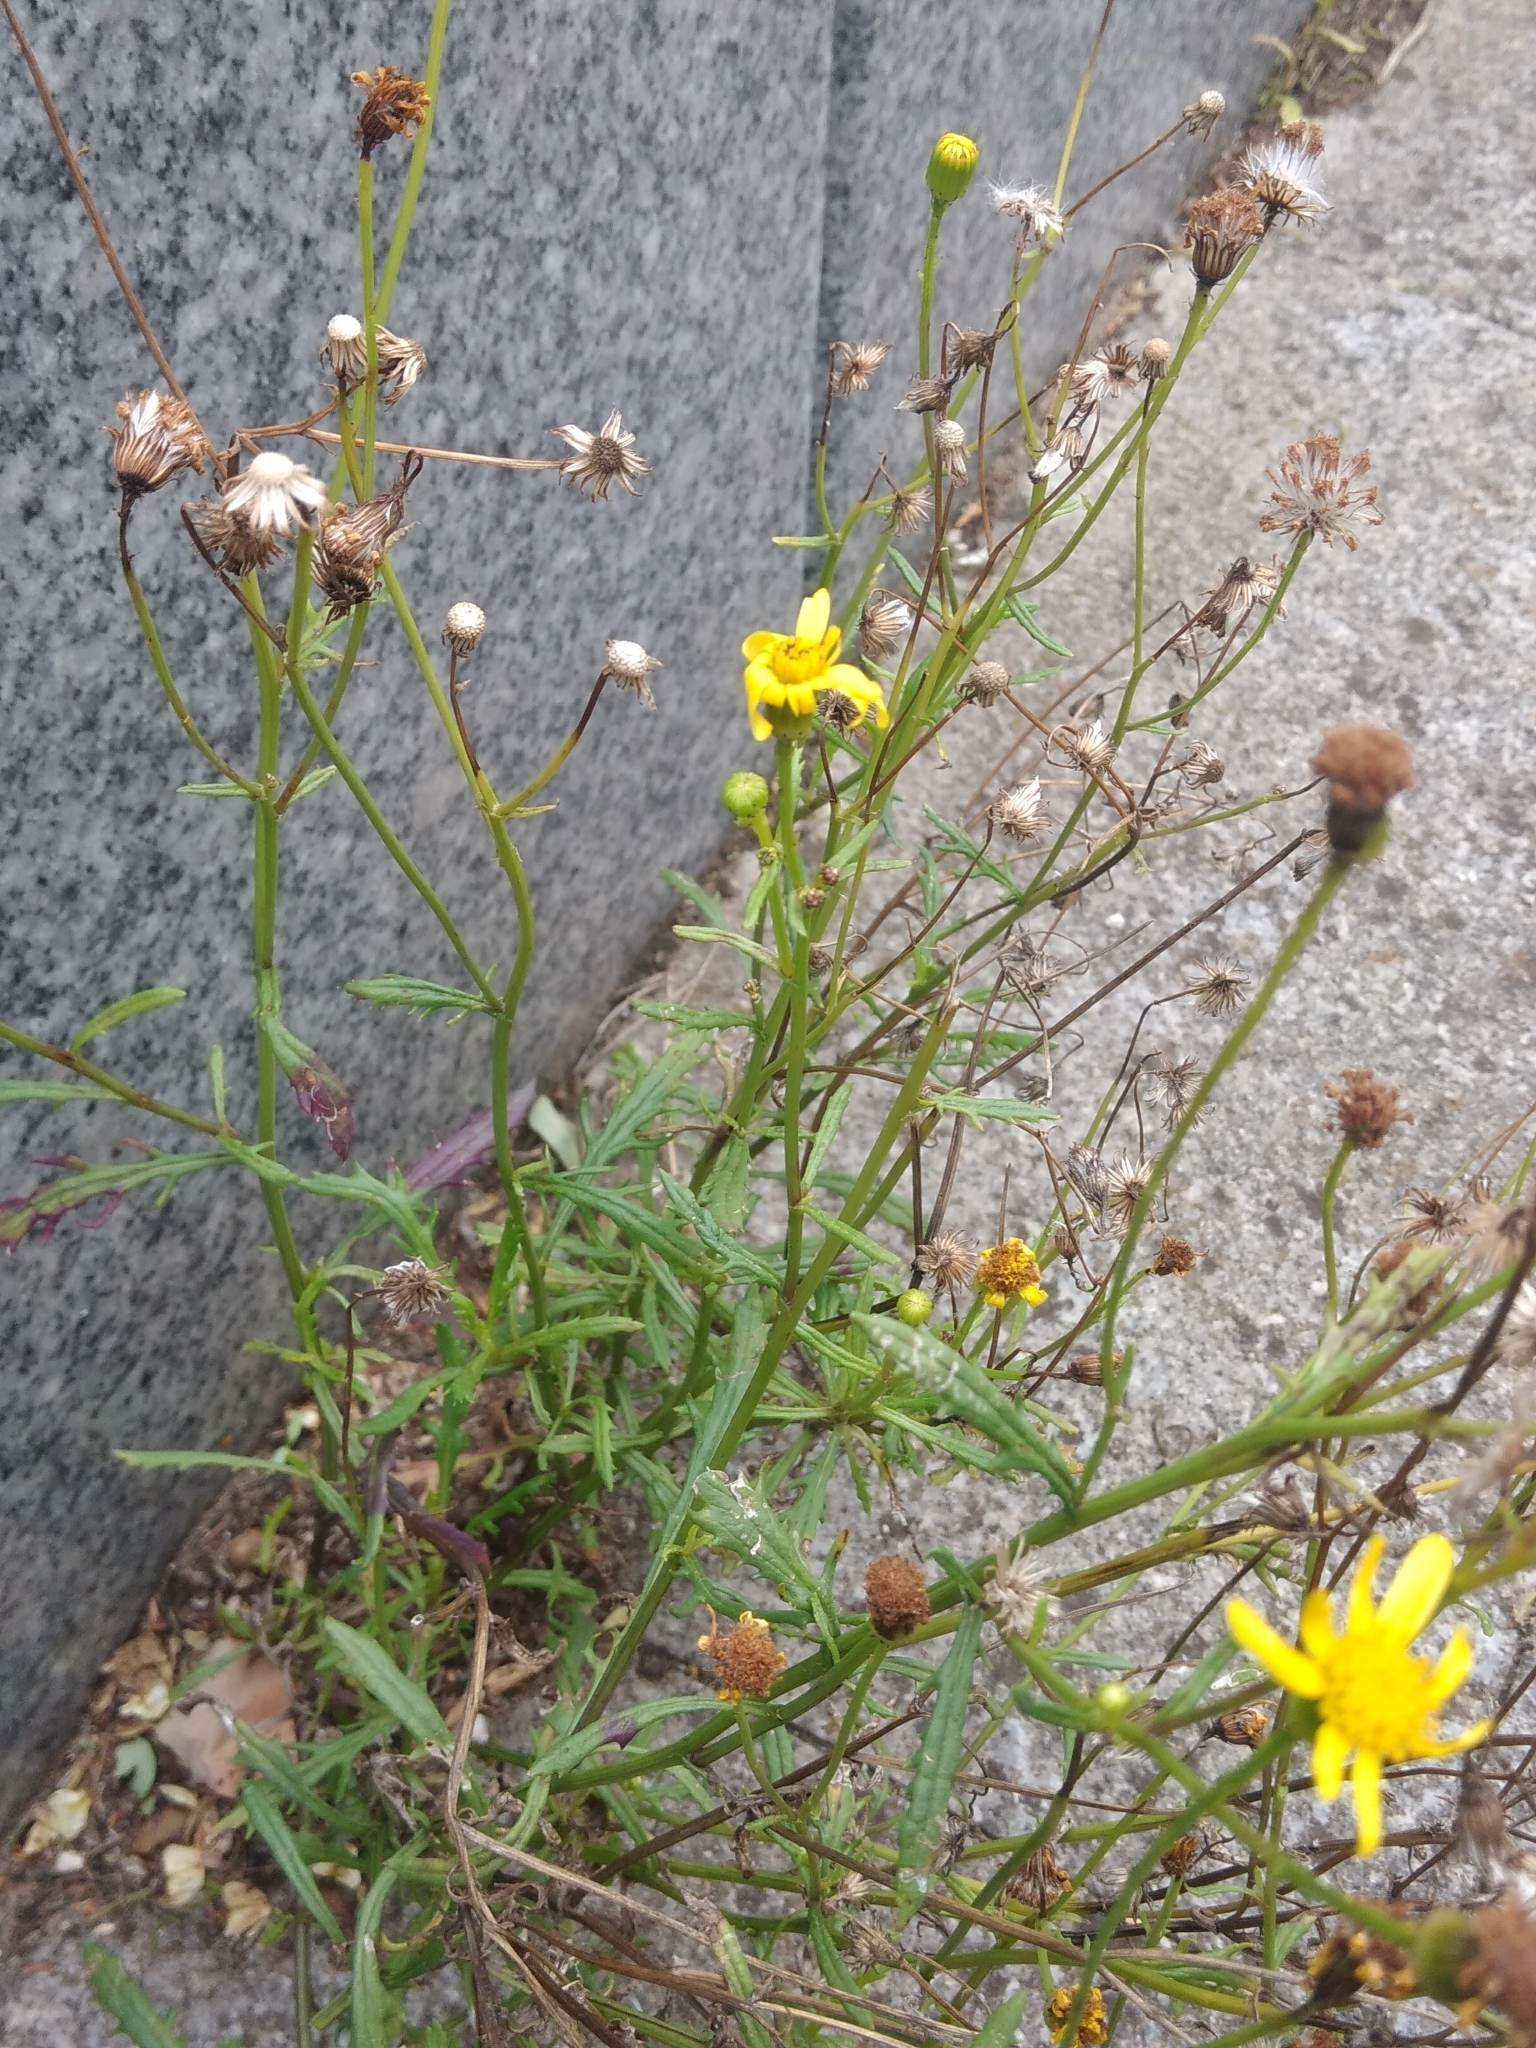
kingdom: Plantae
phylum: Tracheophyta
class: Magnoliopsida
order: Asterales
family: Asteraceae
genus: Senecio
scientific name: Senecio inaequidens
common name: Narrow-leaved ragwort
